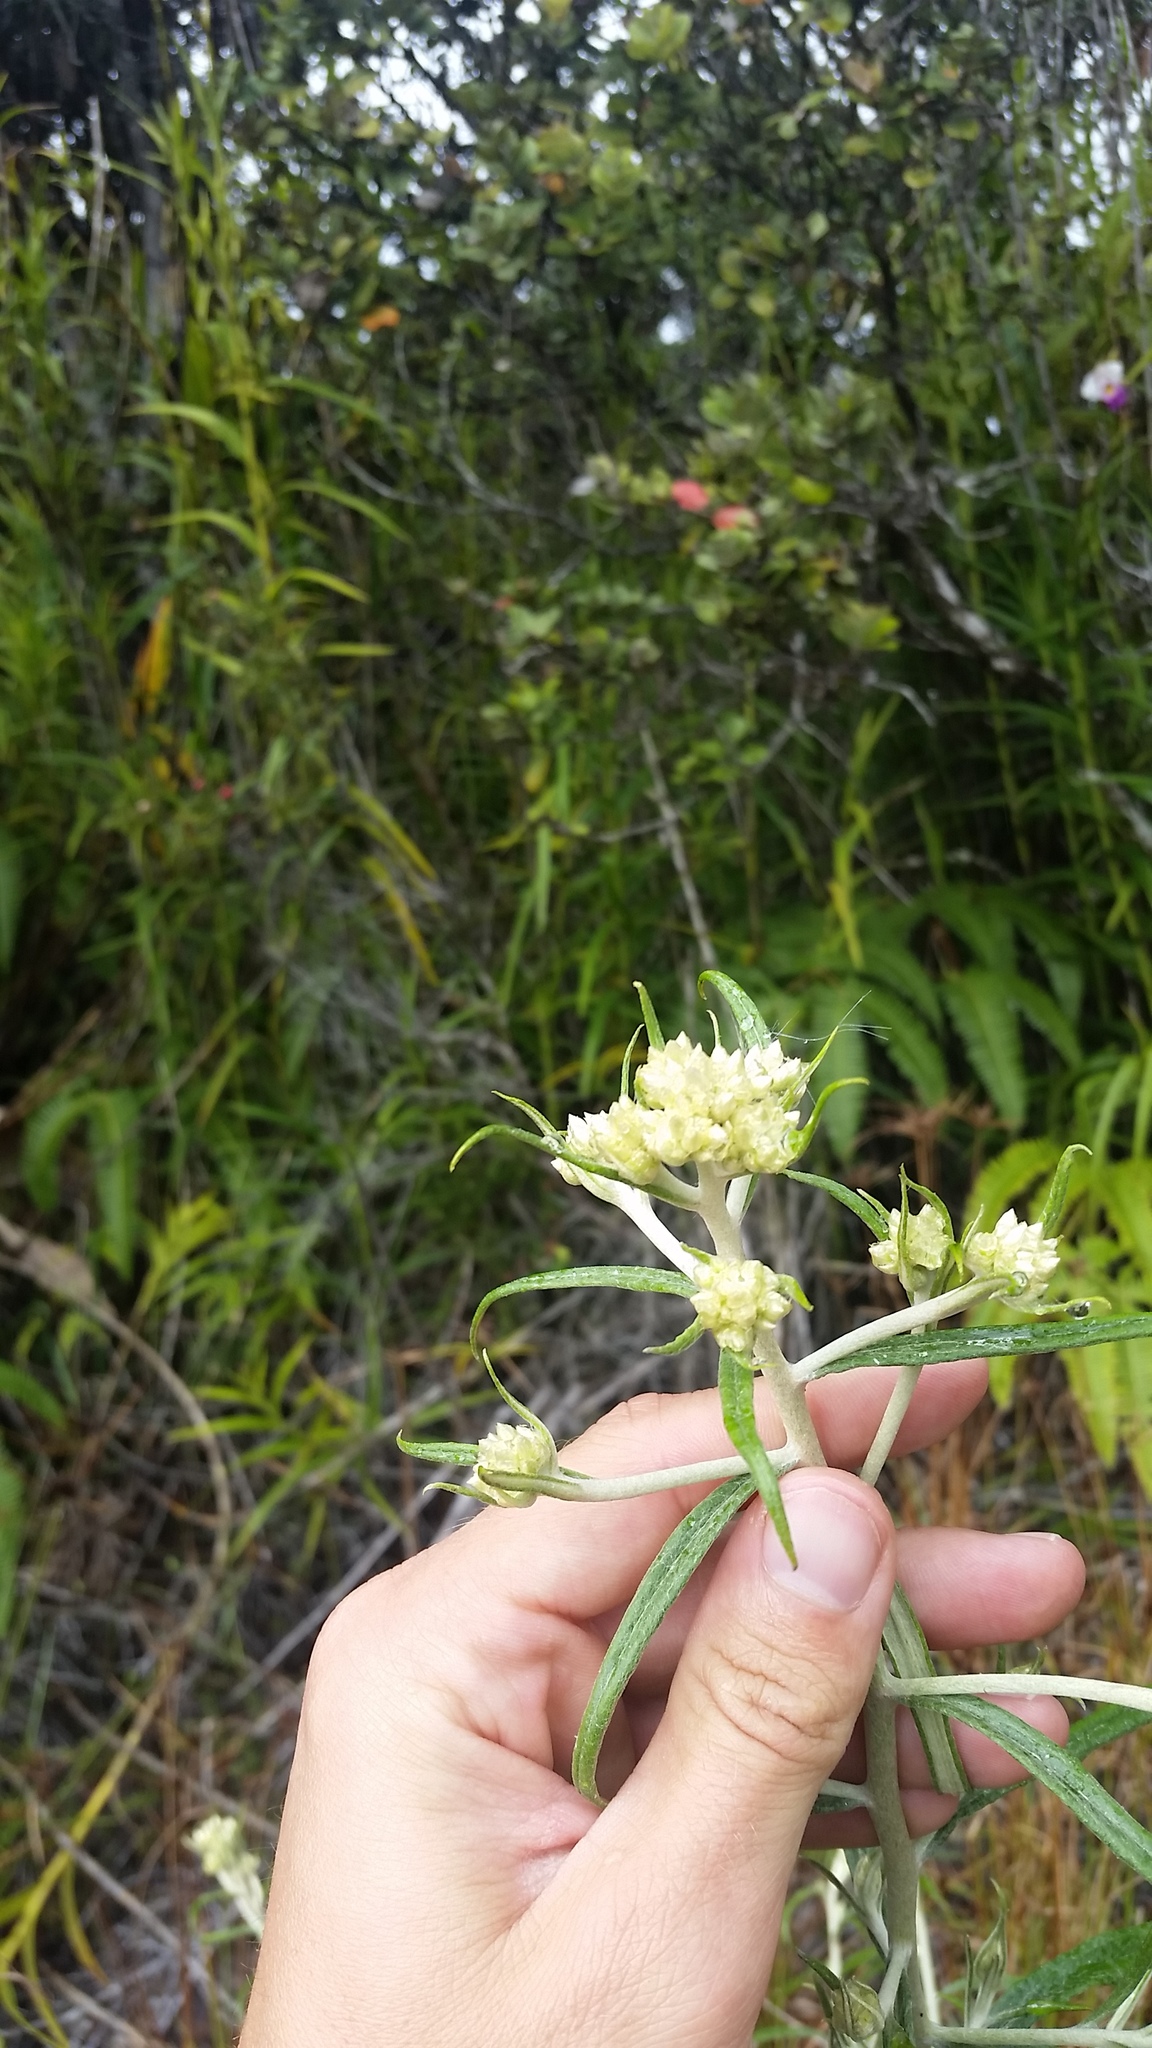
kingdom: Plantae
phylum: Tracheophyta
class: Magnoliopsida
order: Asterales
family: Asteraceae
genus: Pseudognaphalium
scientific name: Pseudognaphalium attenuatum
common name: Tapered cudweed
